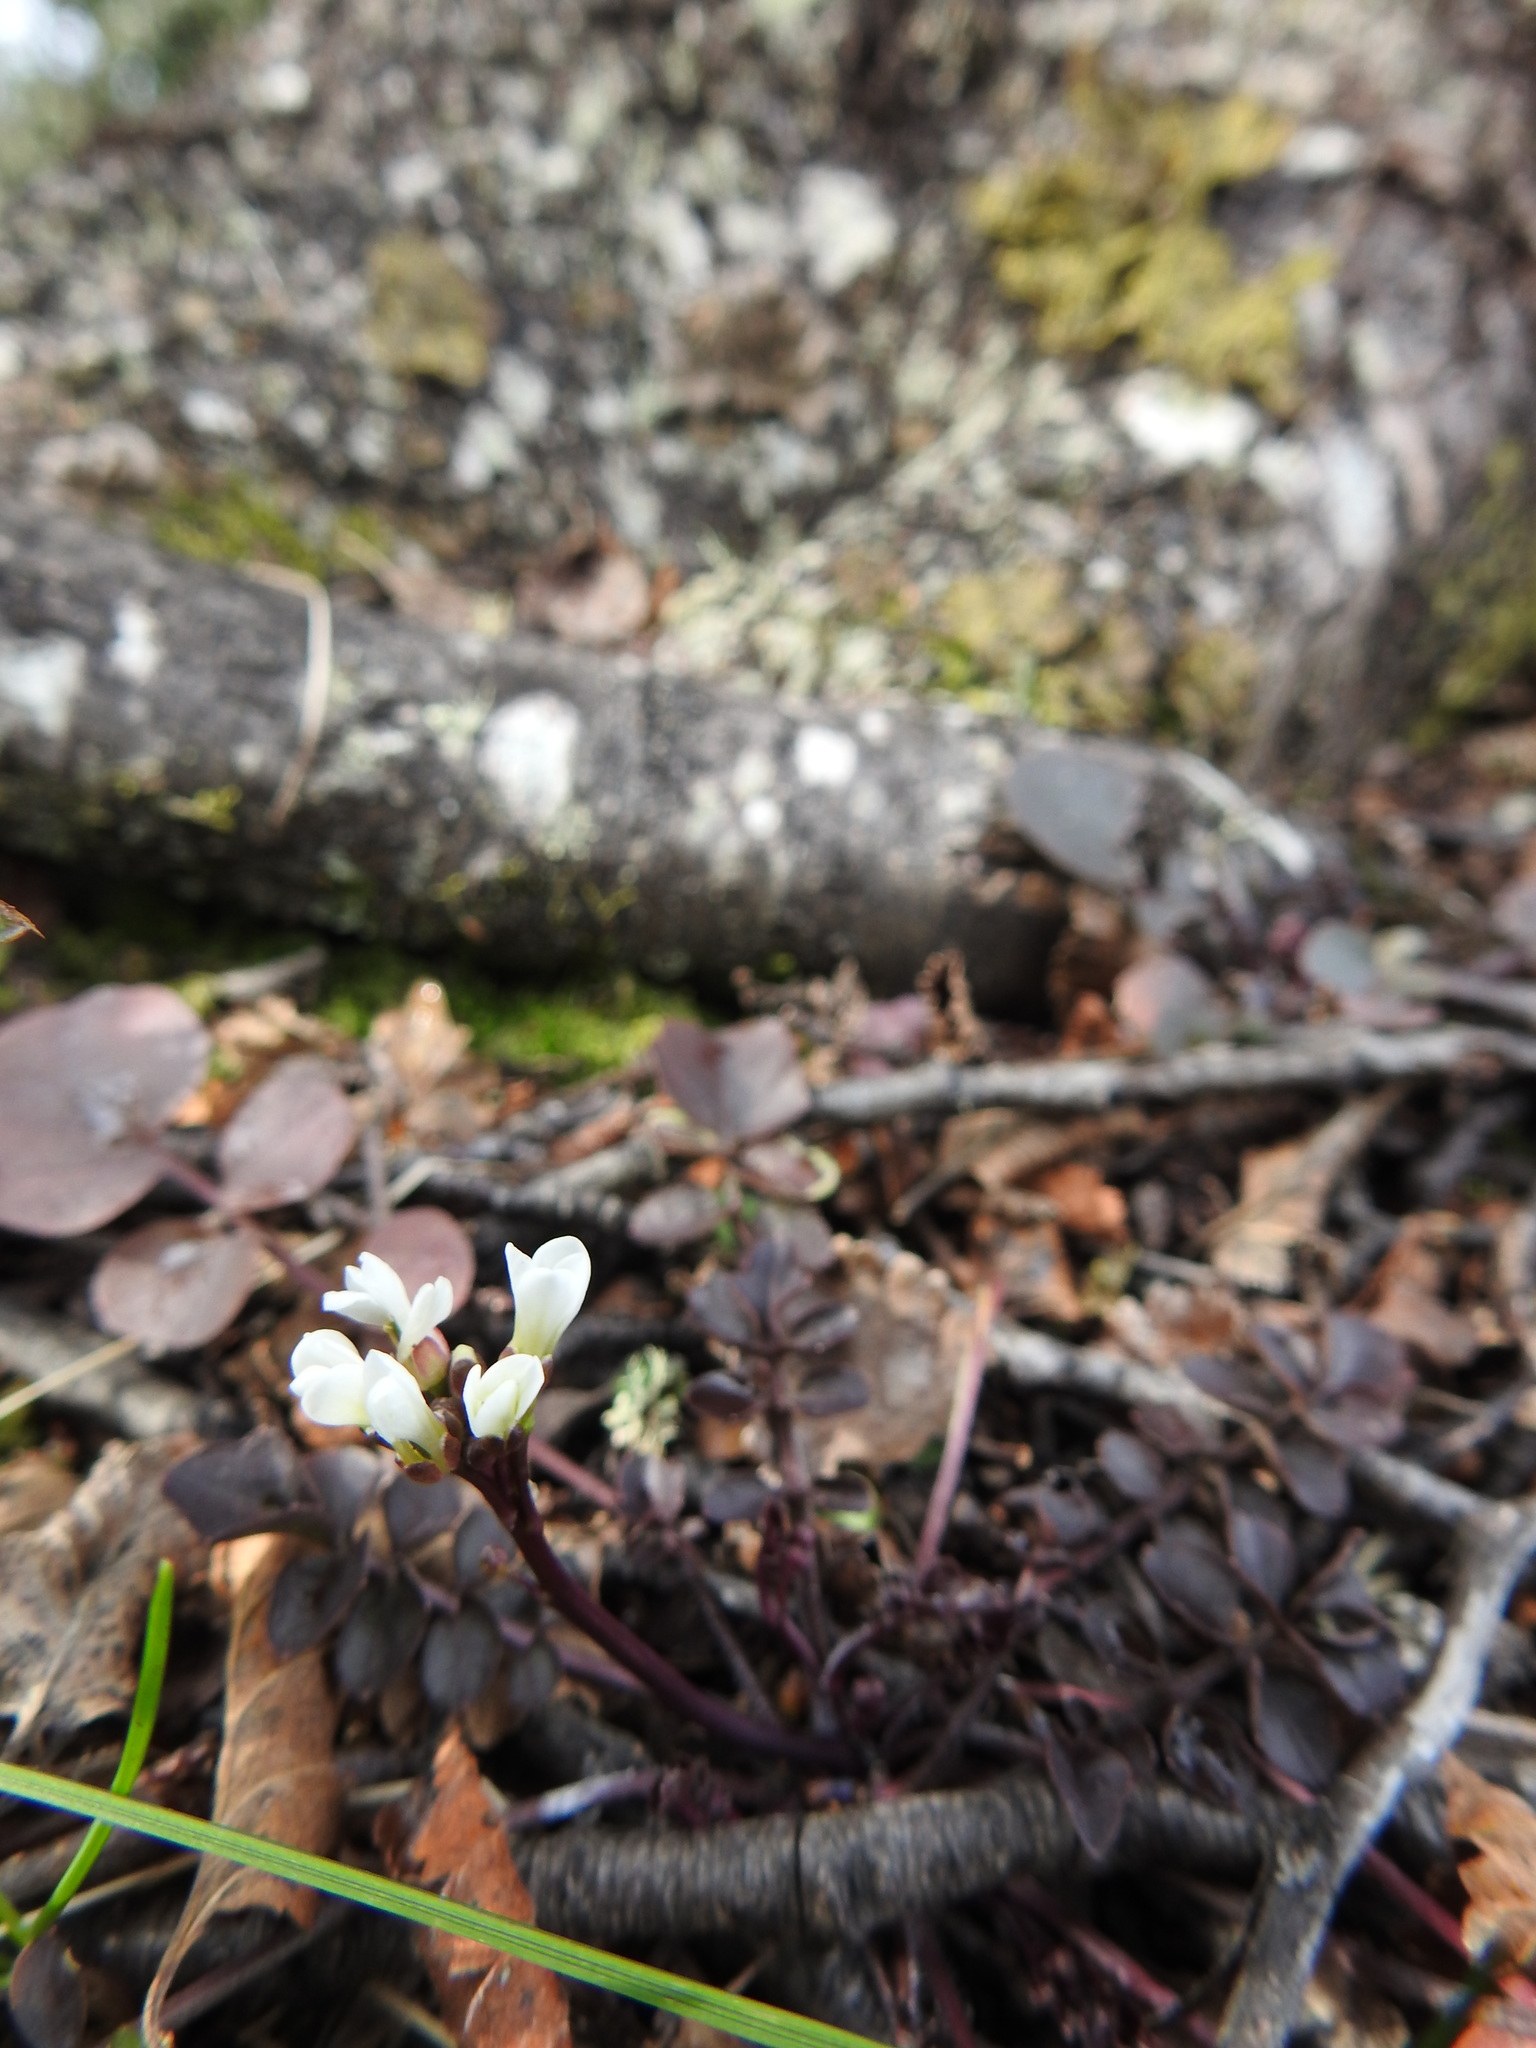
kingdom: Plantae
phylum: Tracheophyta
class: Magnoliopsida
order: Brassicales
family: Brassicaceae
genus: Cardamine
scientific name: Cardamine glacialis
